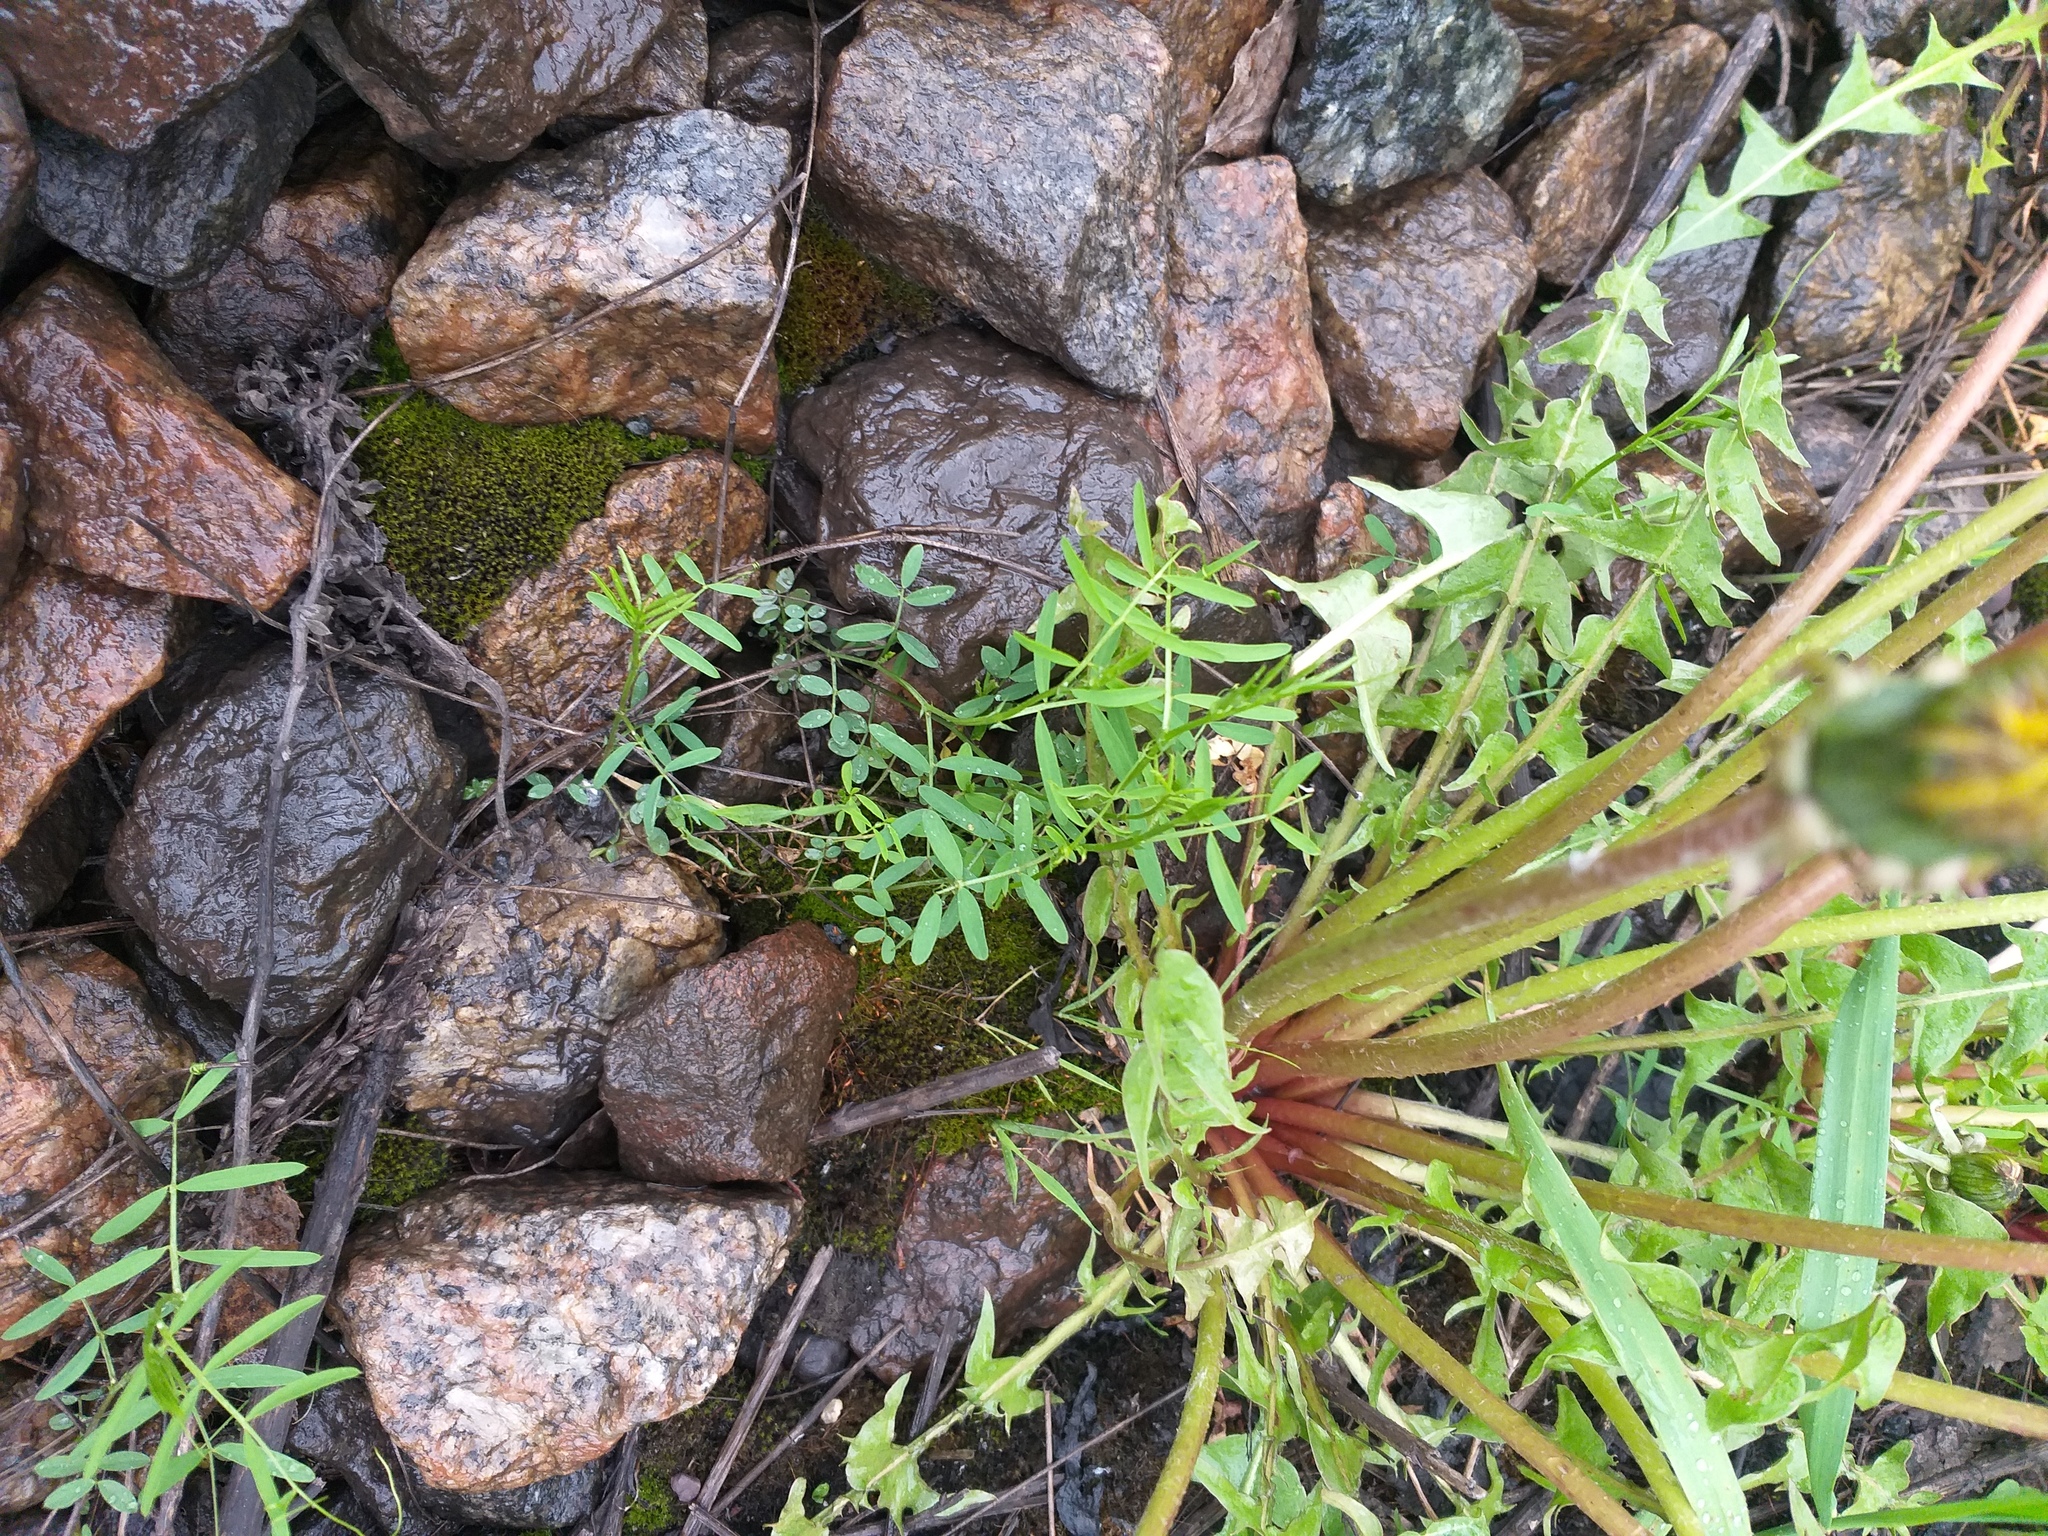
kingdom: Plantae
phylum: Tracheophyta
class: Magnoliopsida
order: Fabales
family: Fabaceae
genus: Vicia
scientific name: Vicia tetrasperma
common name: Smooth tare
